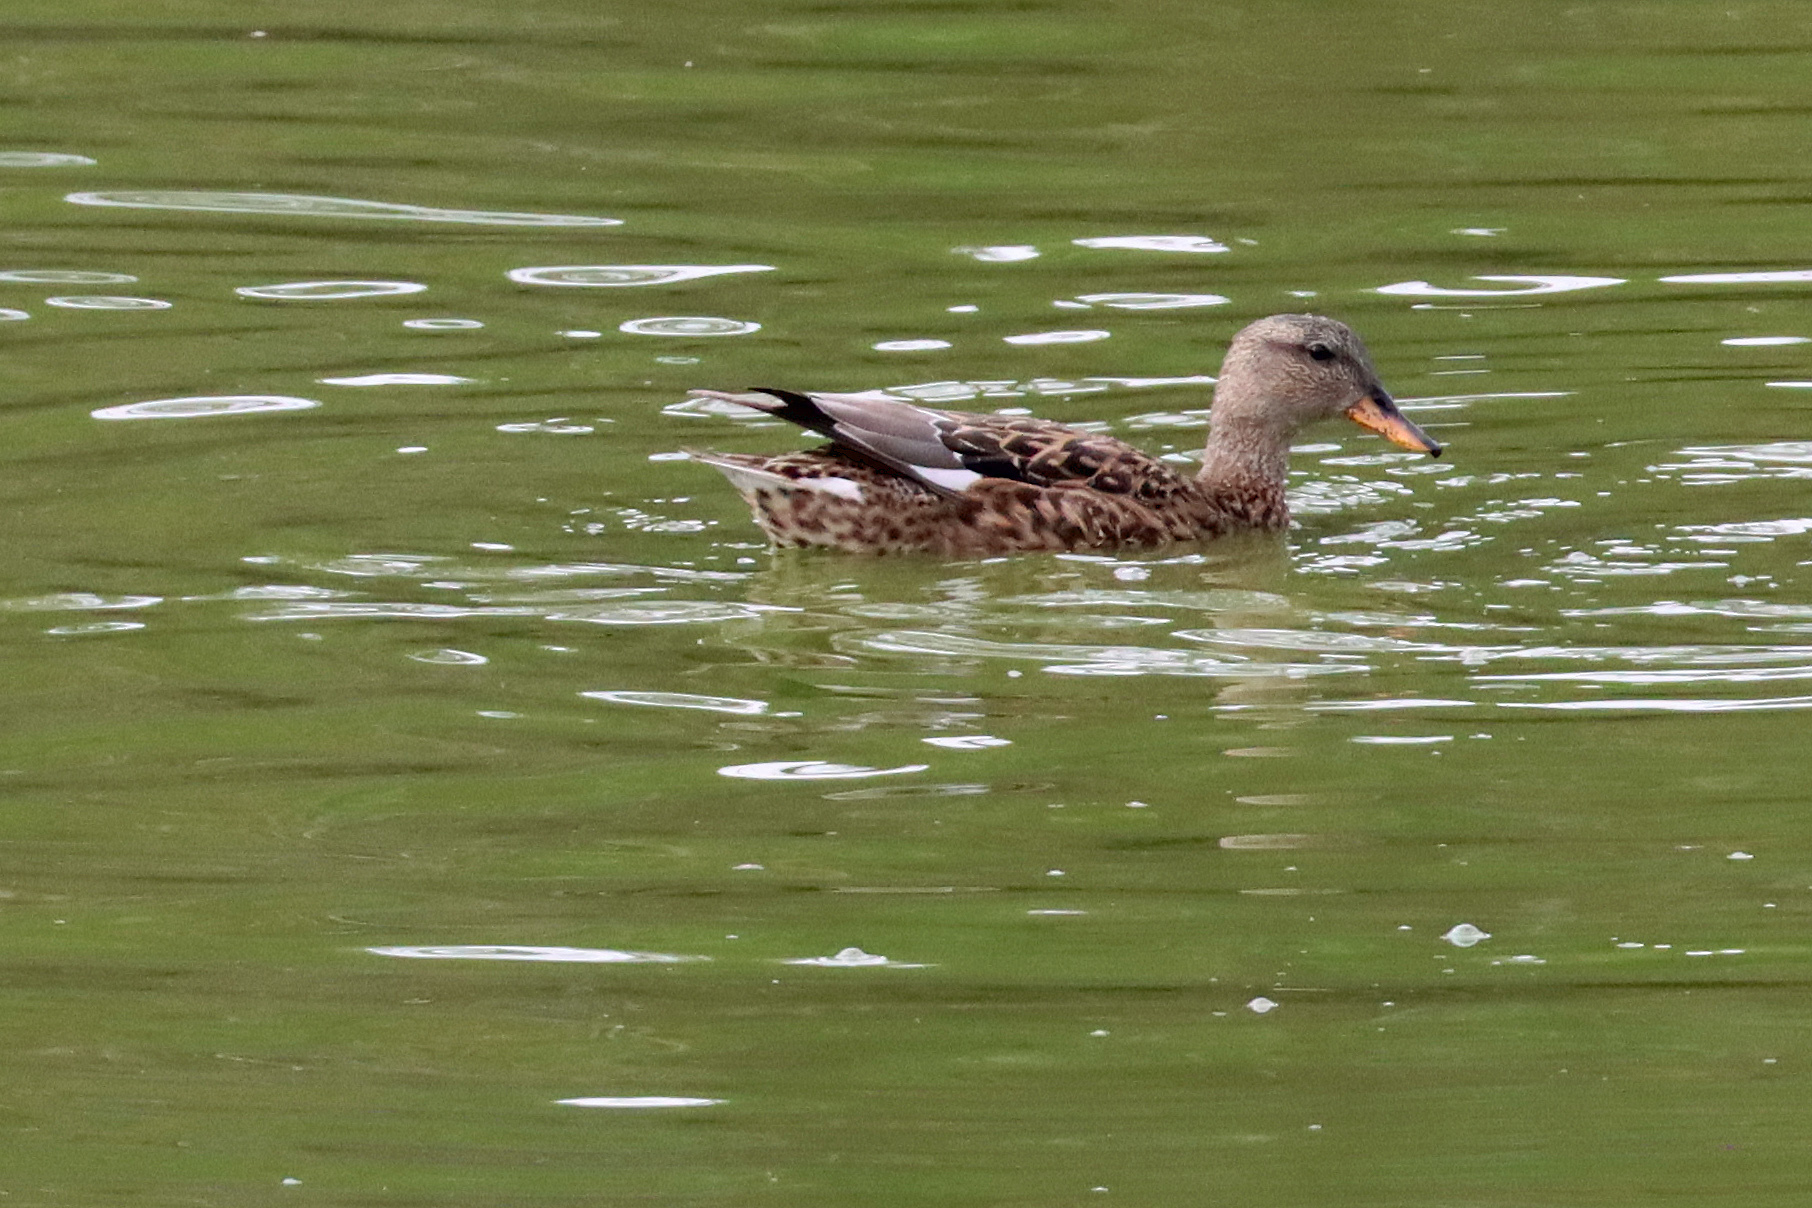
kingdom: Animalia
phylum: Chordata
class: Aves
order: Anseriformes
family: Anatidae
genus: Mareca
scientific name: Mareca strepera
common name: Gadwall
